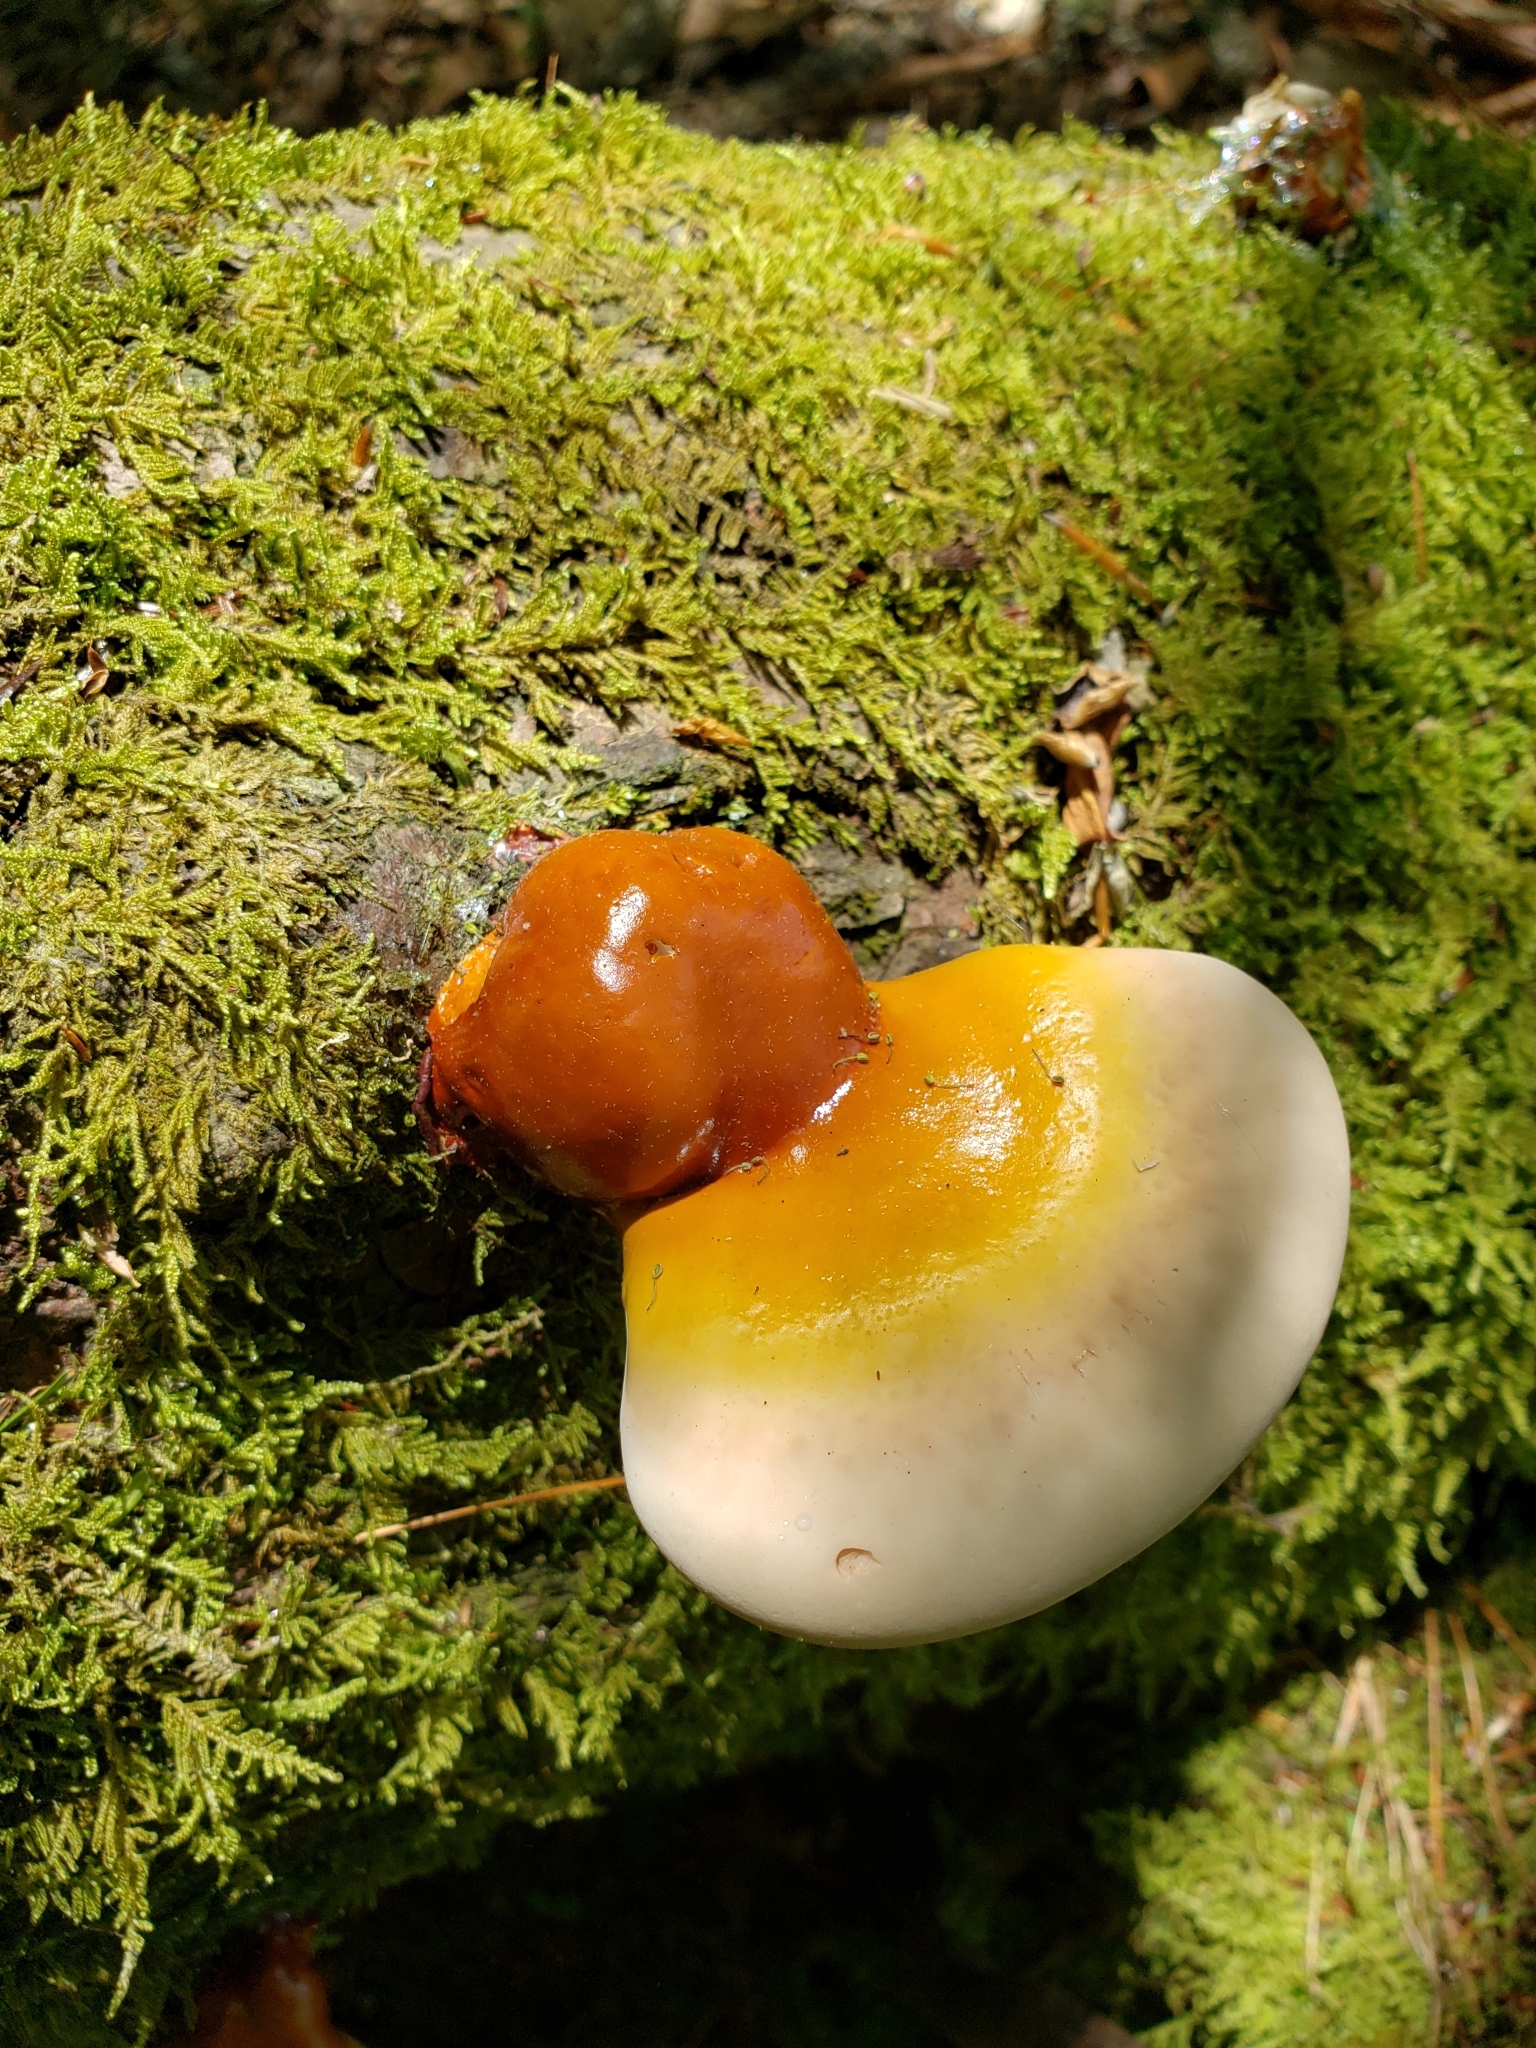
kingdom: Fungi
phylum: Basidiomycota
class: Agaricomycetes
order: Polyporales
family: Polyporaceae
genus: Ganoderma
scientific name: Ganoderma tsugae
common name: Hemlock varnish shelf
